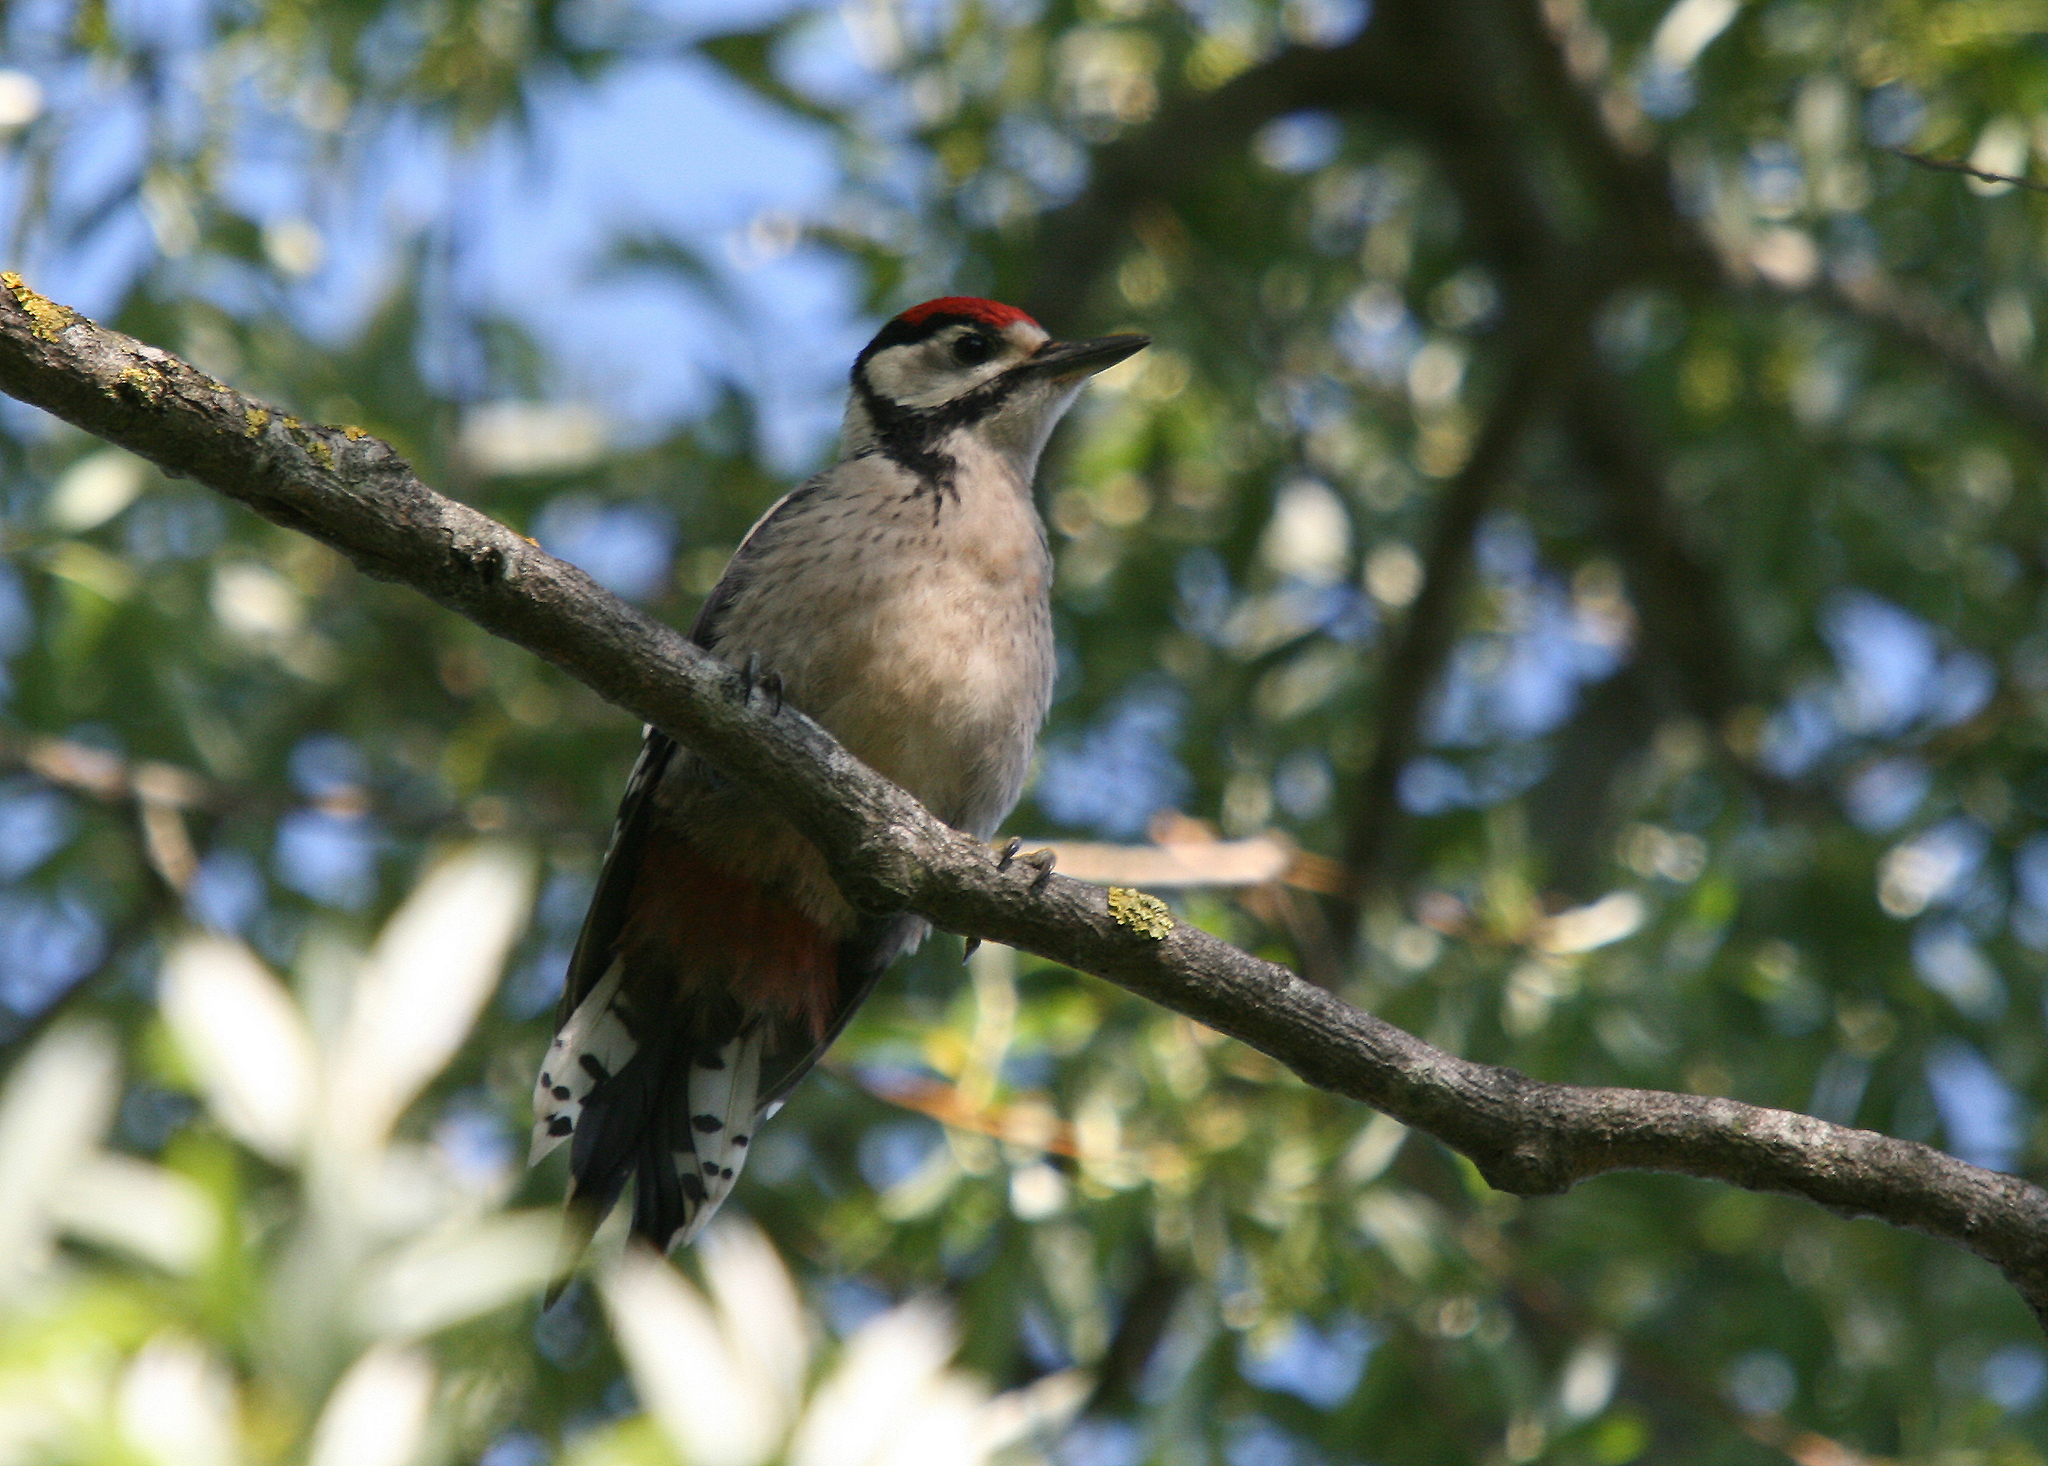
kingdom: Animalia
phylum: Chordata
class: Aves
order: Piciformes
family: Picidae
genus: Dendrocopos
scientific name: Dendrocopos major
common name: Great spotted woodpecker
